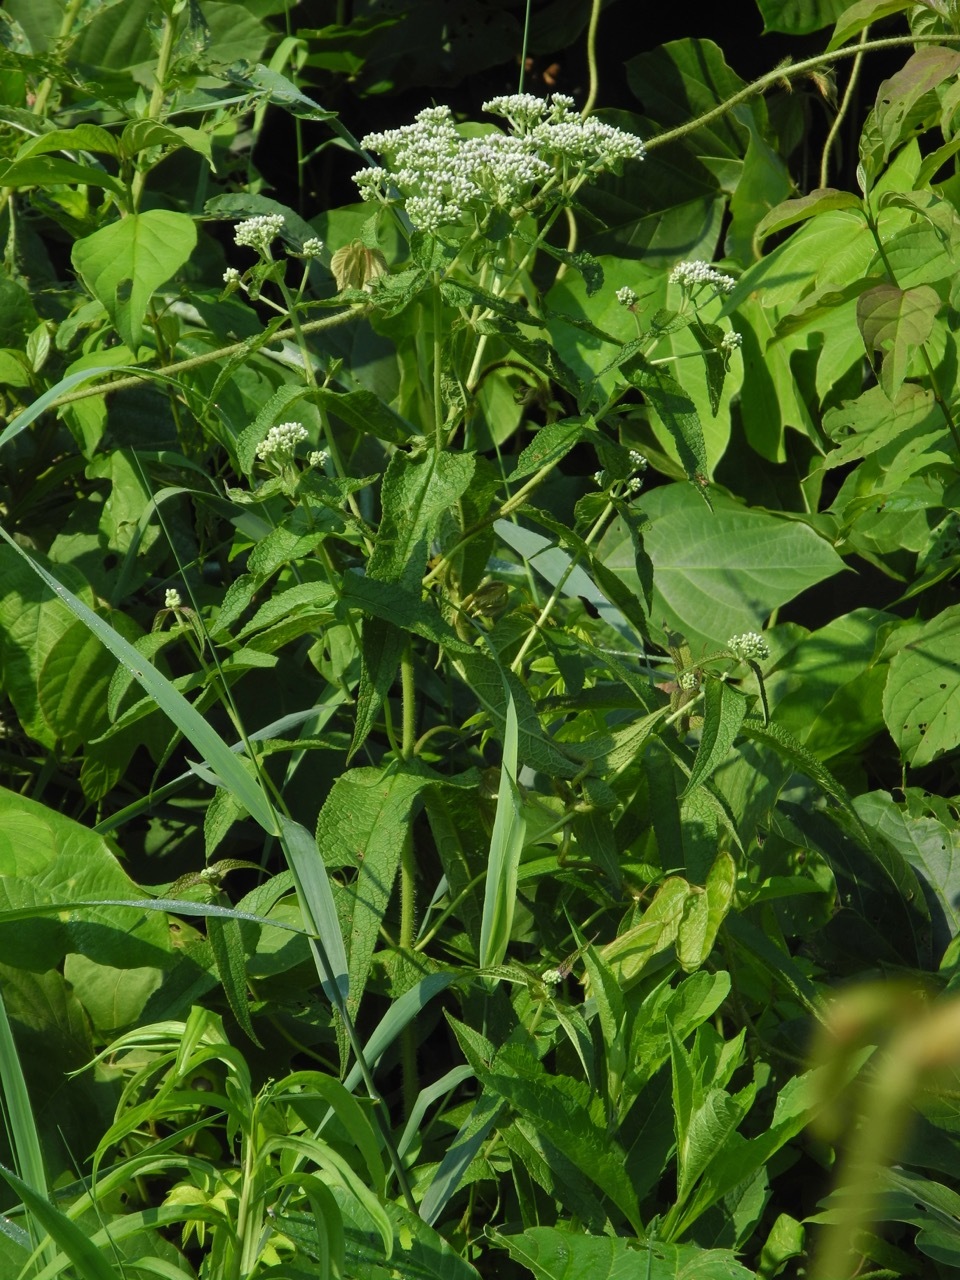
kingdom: Plantae
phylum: Tracheophyta
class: Magnoliopsida
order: Asterales
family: Asteraceae
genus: Eupatorium
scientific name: Eupatorium perfoliatum
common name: Boneset
